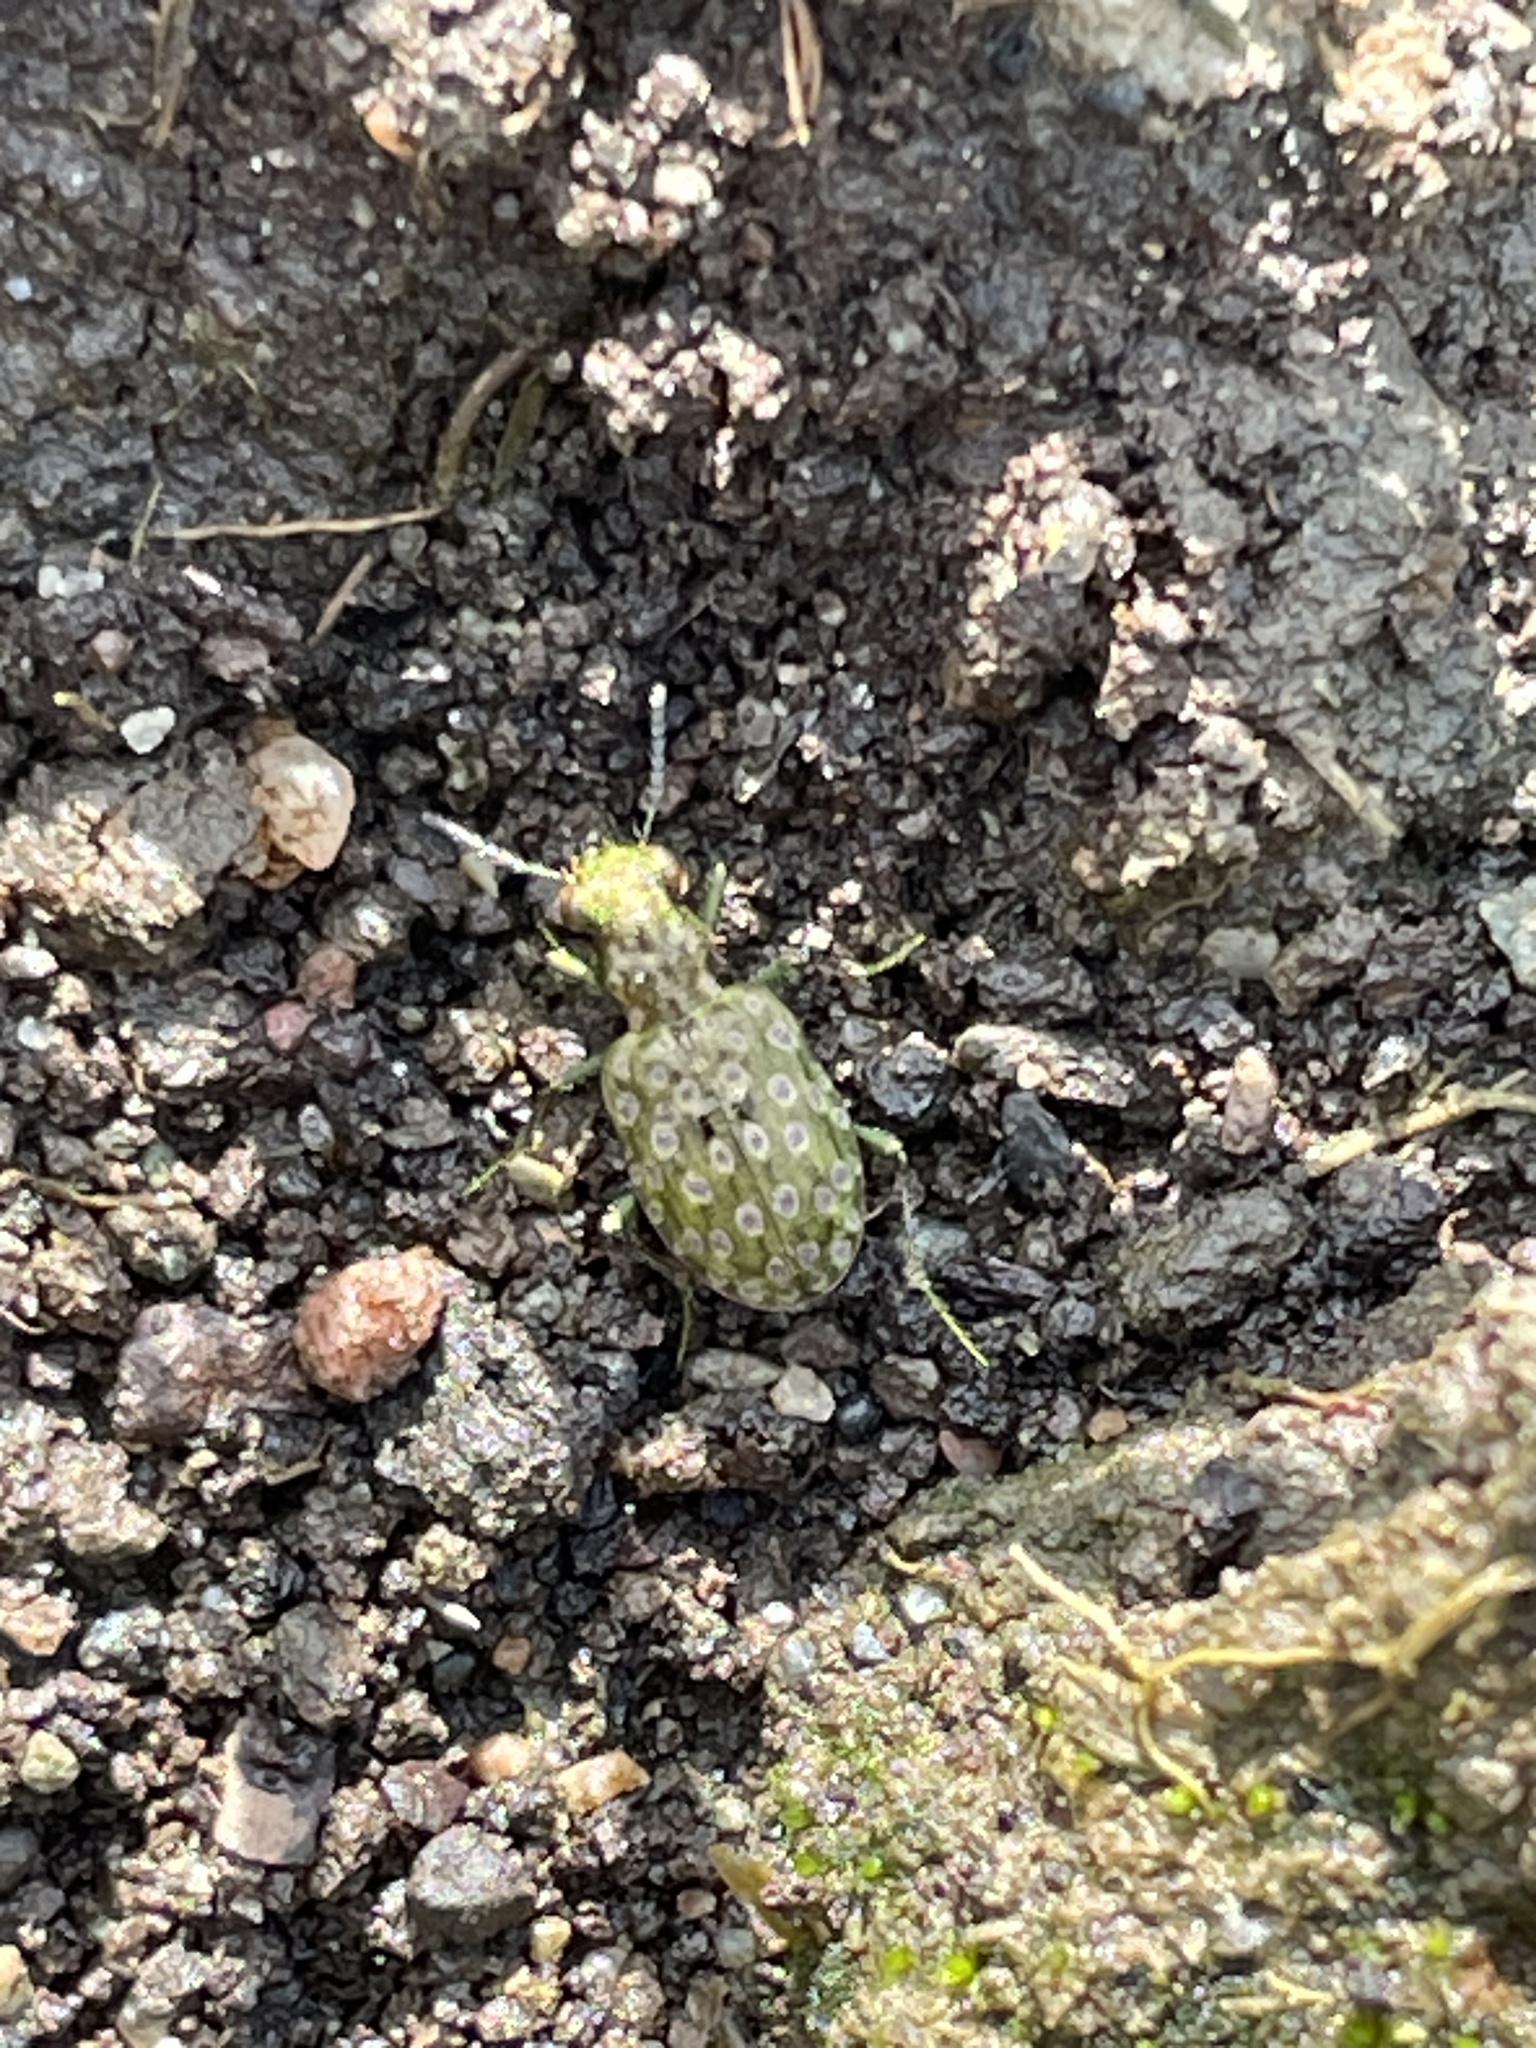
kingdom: Animalia
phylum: Arthropoda
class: Insecta
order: Coleoptera
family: Carabidae
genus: Elaphrus
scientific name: Elaphrus riparius
